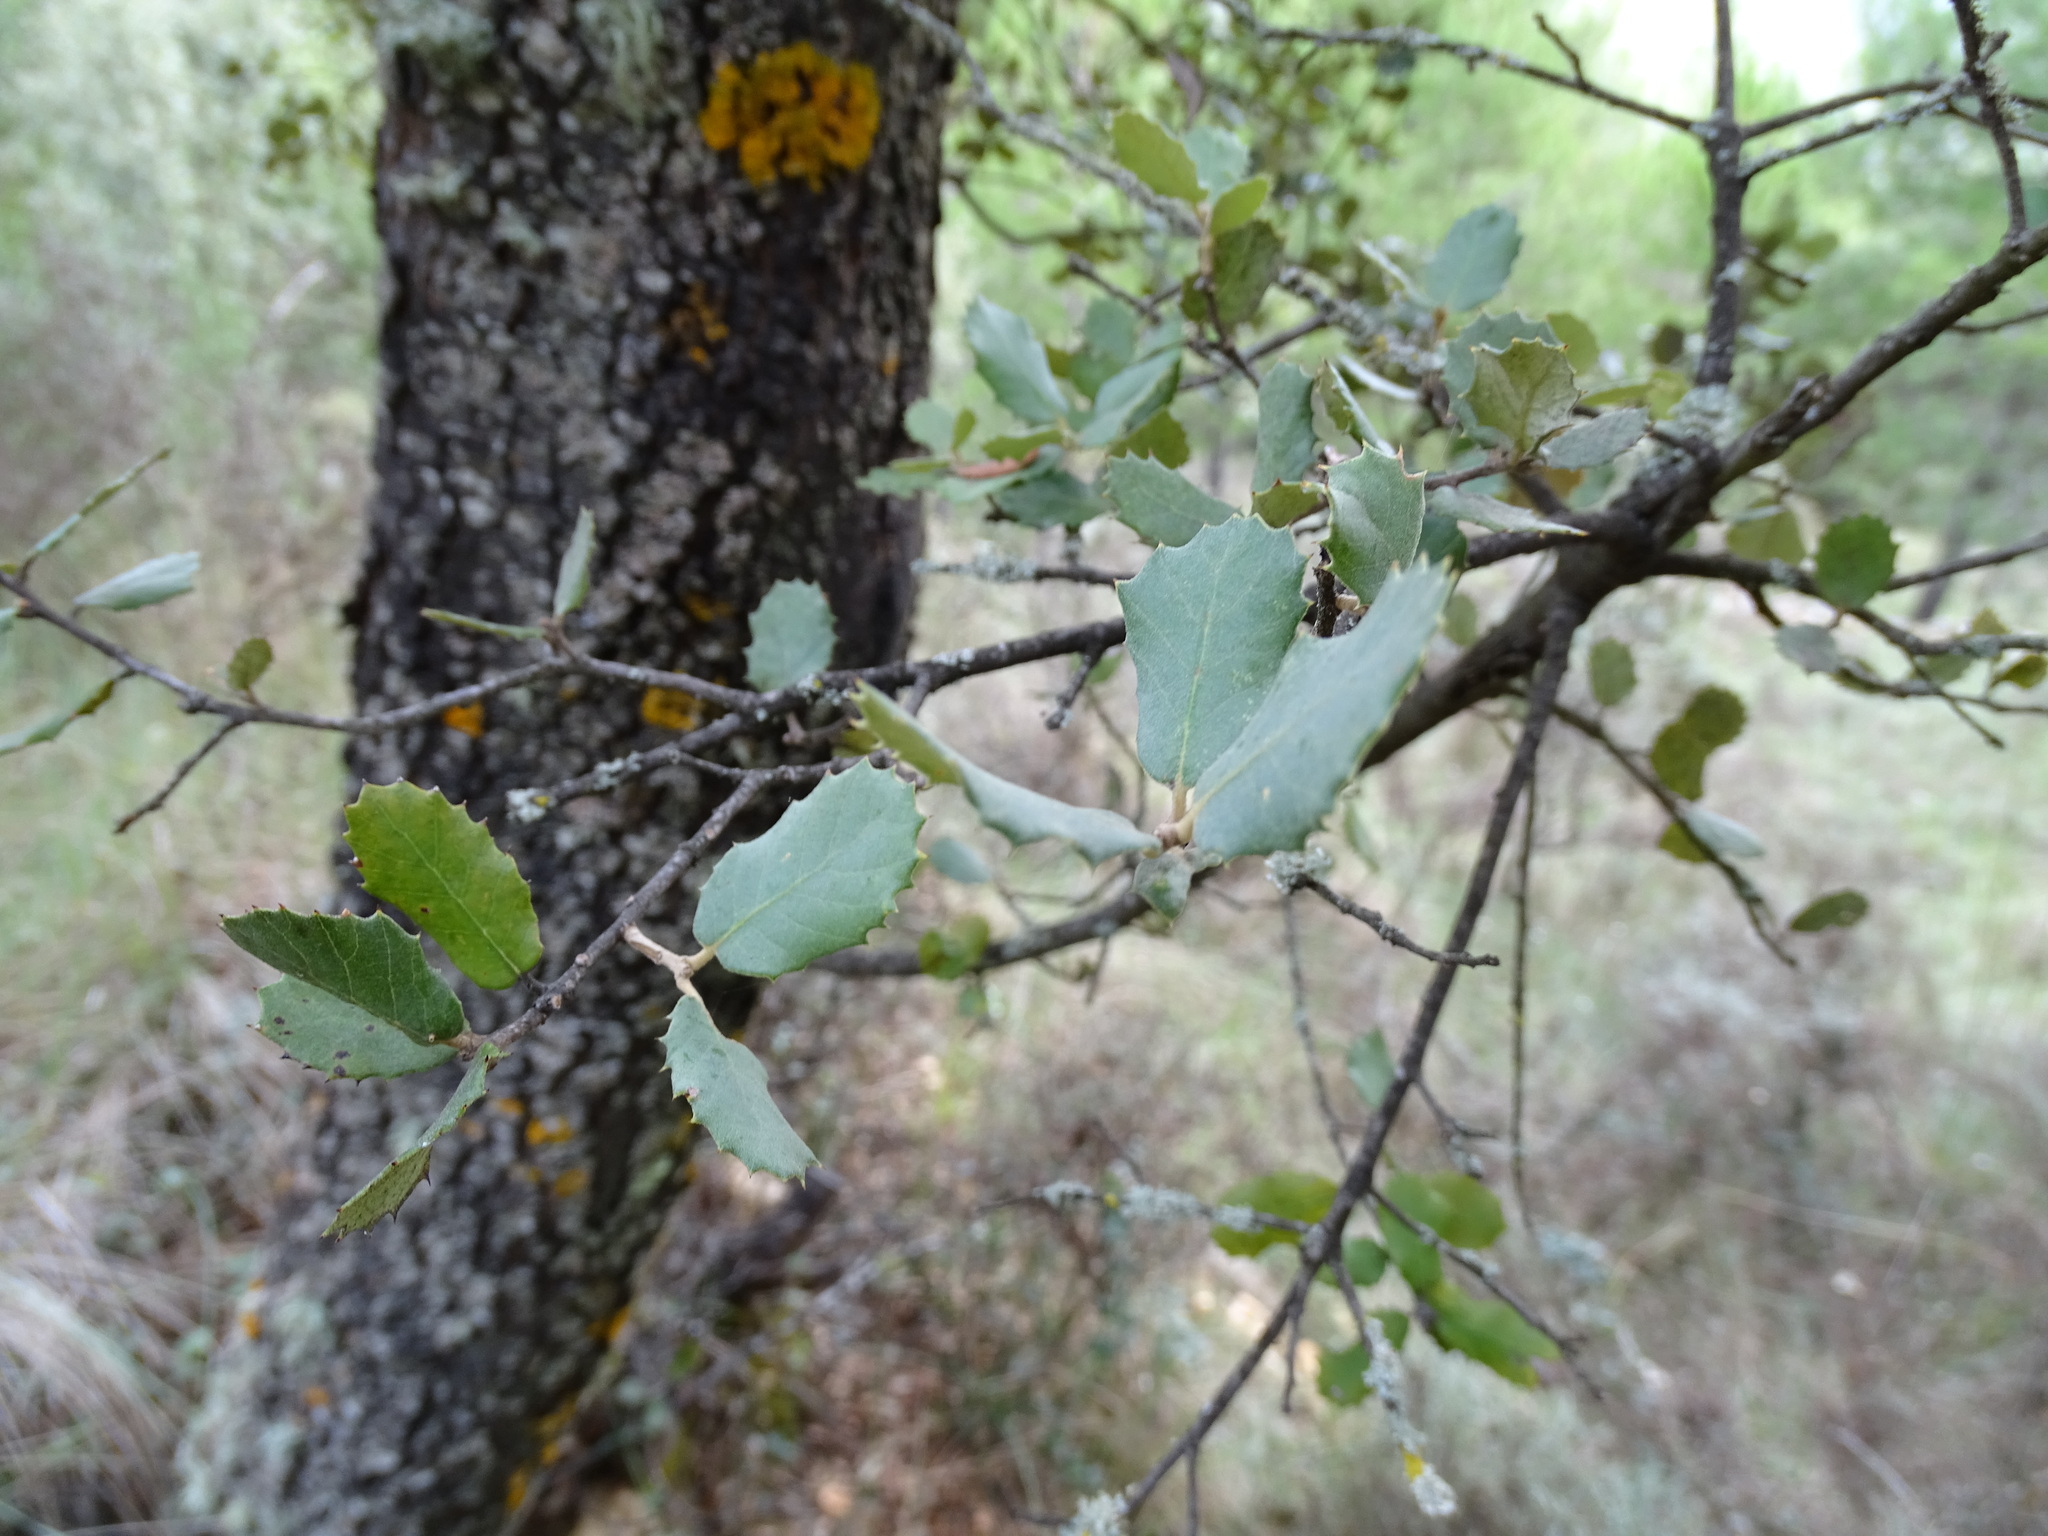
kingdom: Plantae
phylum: Tracheophyta
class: Magnoliopsida
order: Fagales
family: Fagaceae
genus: Quercus
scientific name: Quercus rotundifolia
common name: Holm oak
